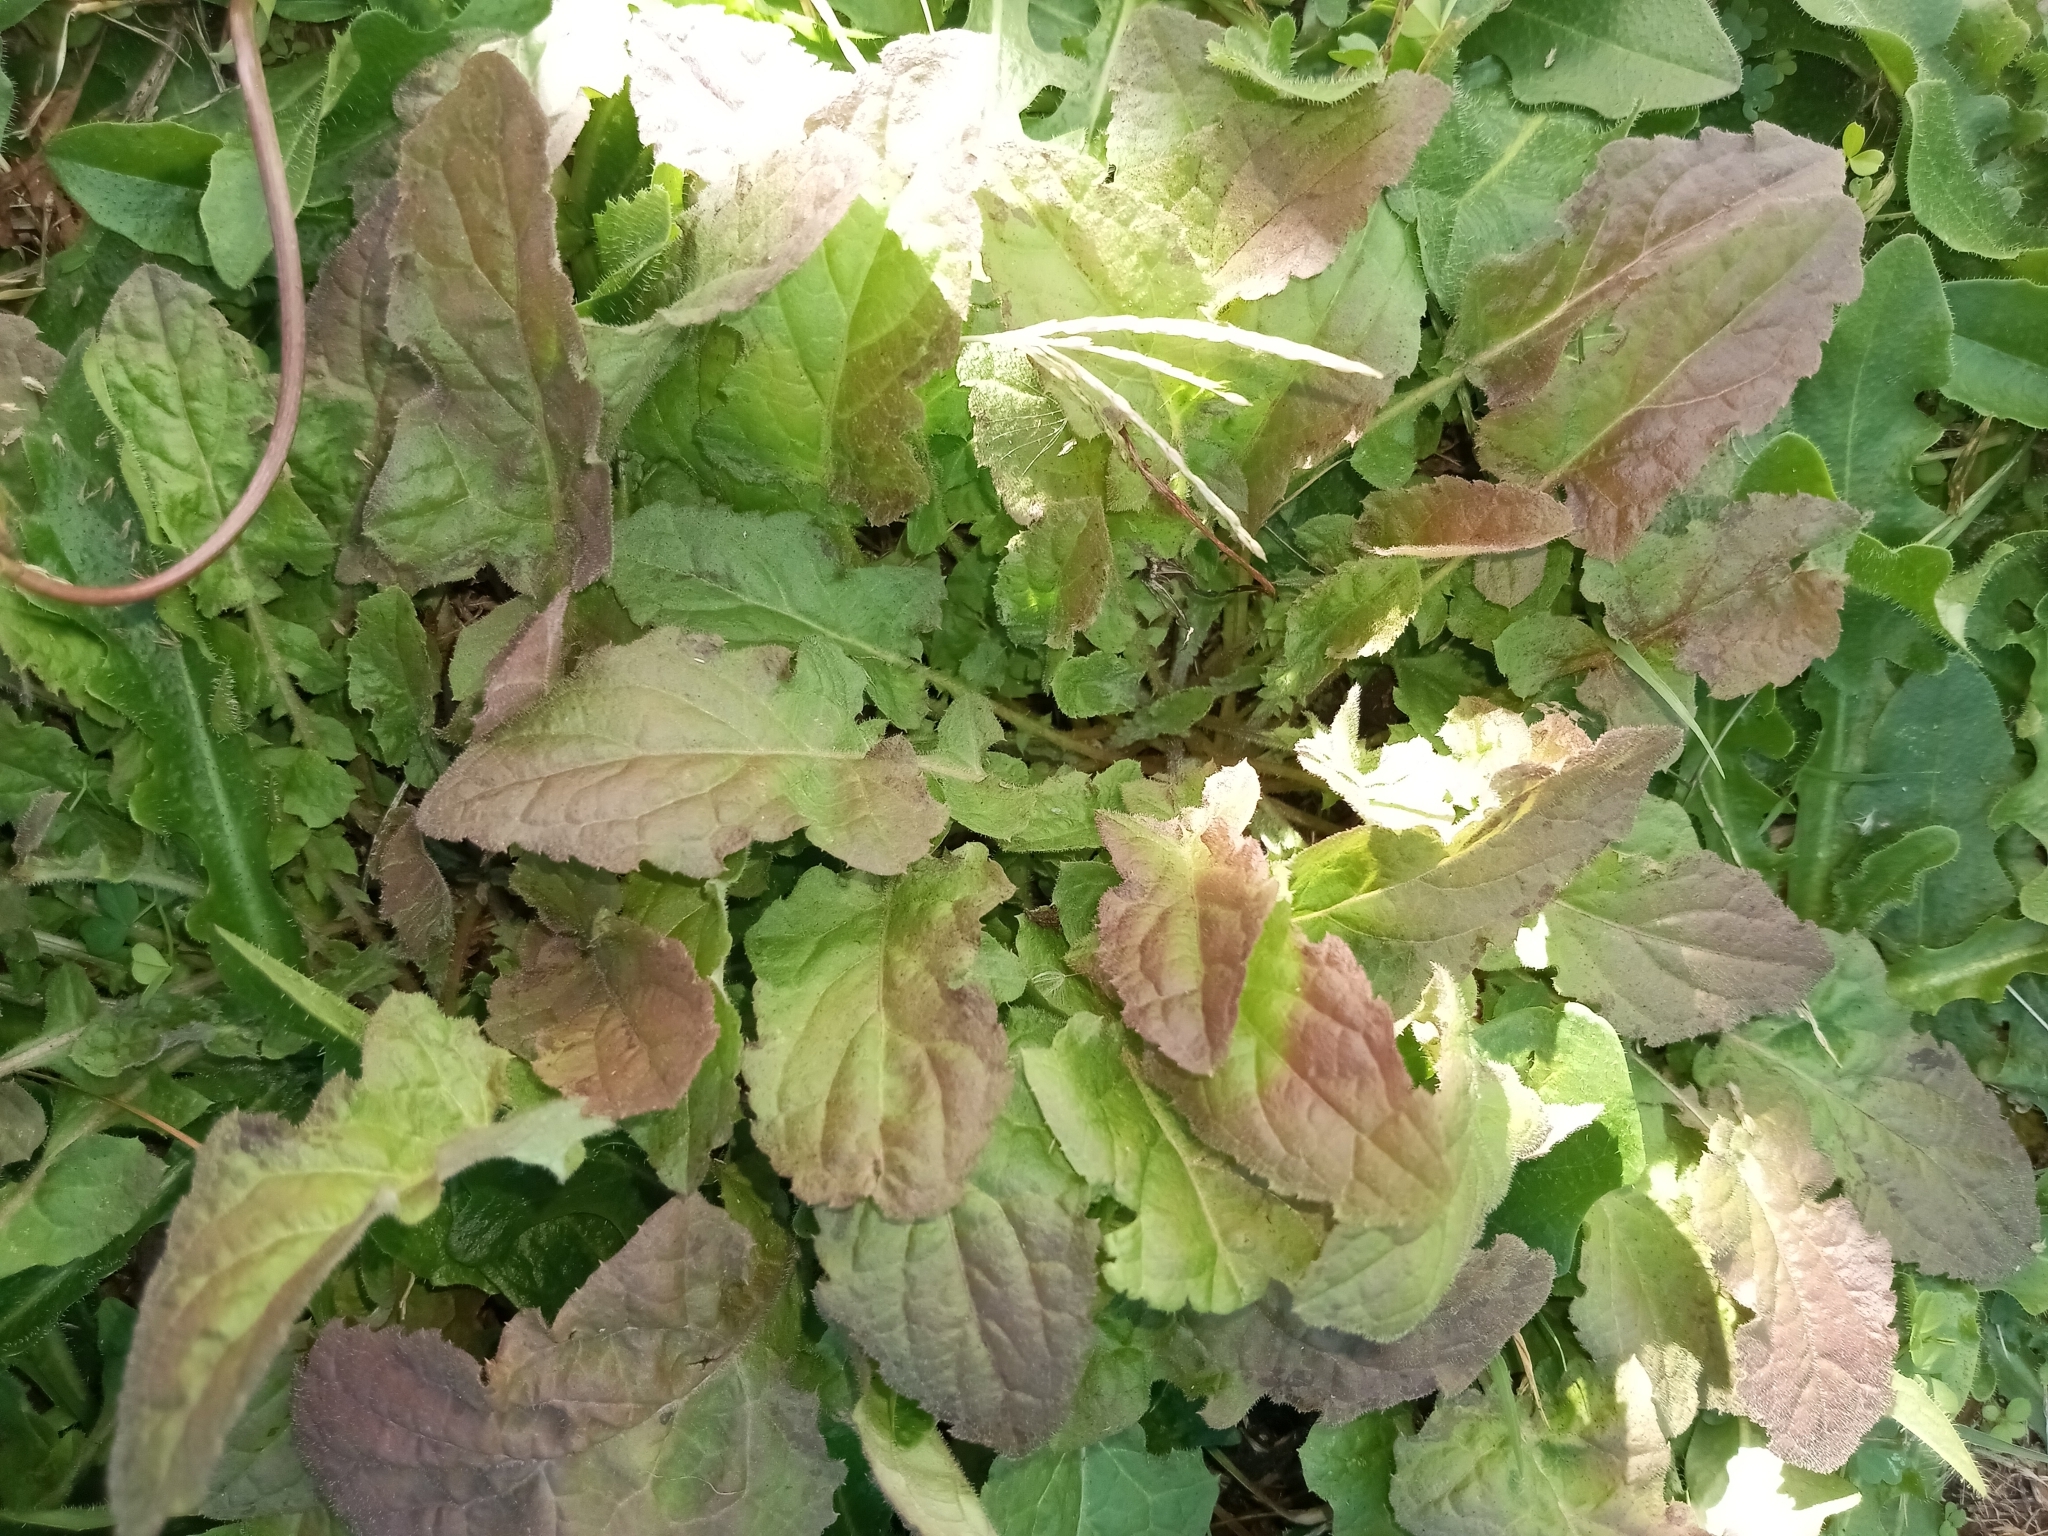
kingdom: Plantae
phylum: Tracheophyta
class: Magnoliopsida
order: Asterales
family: Asteraceae
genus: Youngia
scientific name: Youngia japonica
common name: Oriental false hawksbeard
